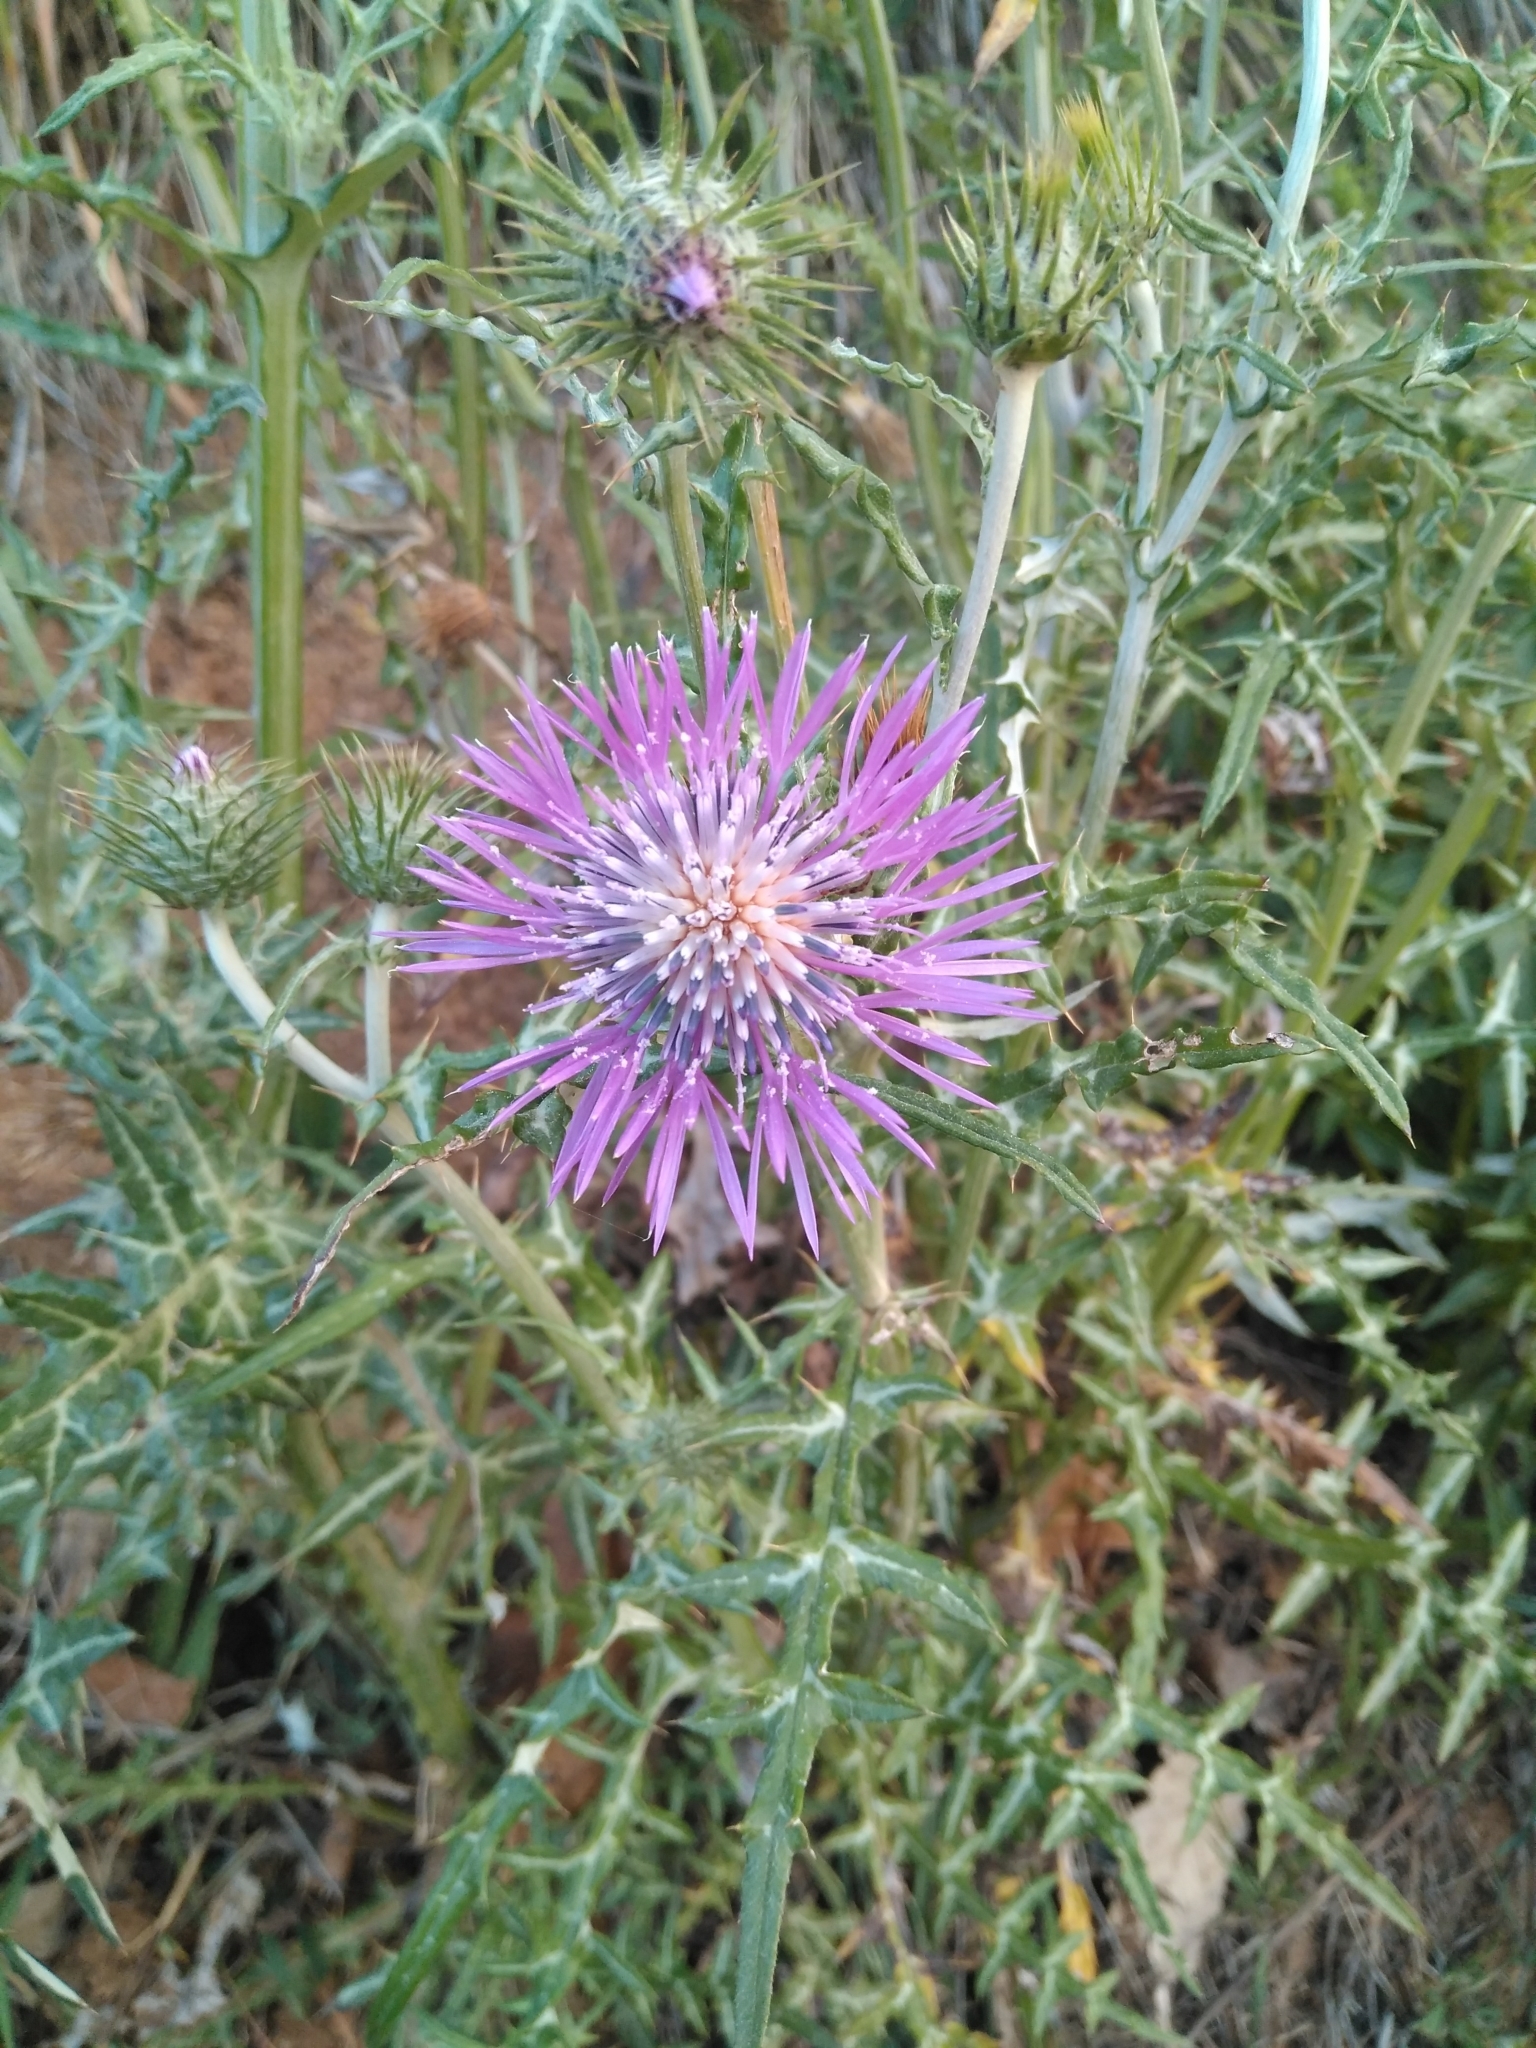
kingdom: Plantae
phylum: Tracheophyta
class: Magnoliopsida
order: Asterales
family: Asteraceae
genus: Galactites
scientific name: Galactites tomentosa
